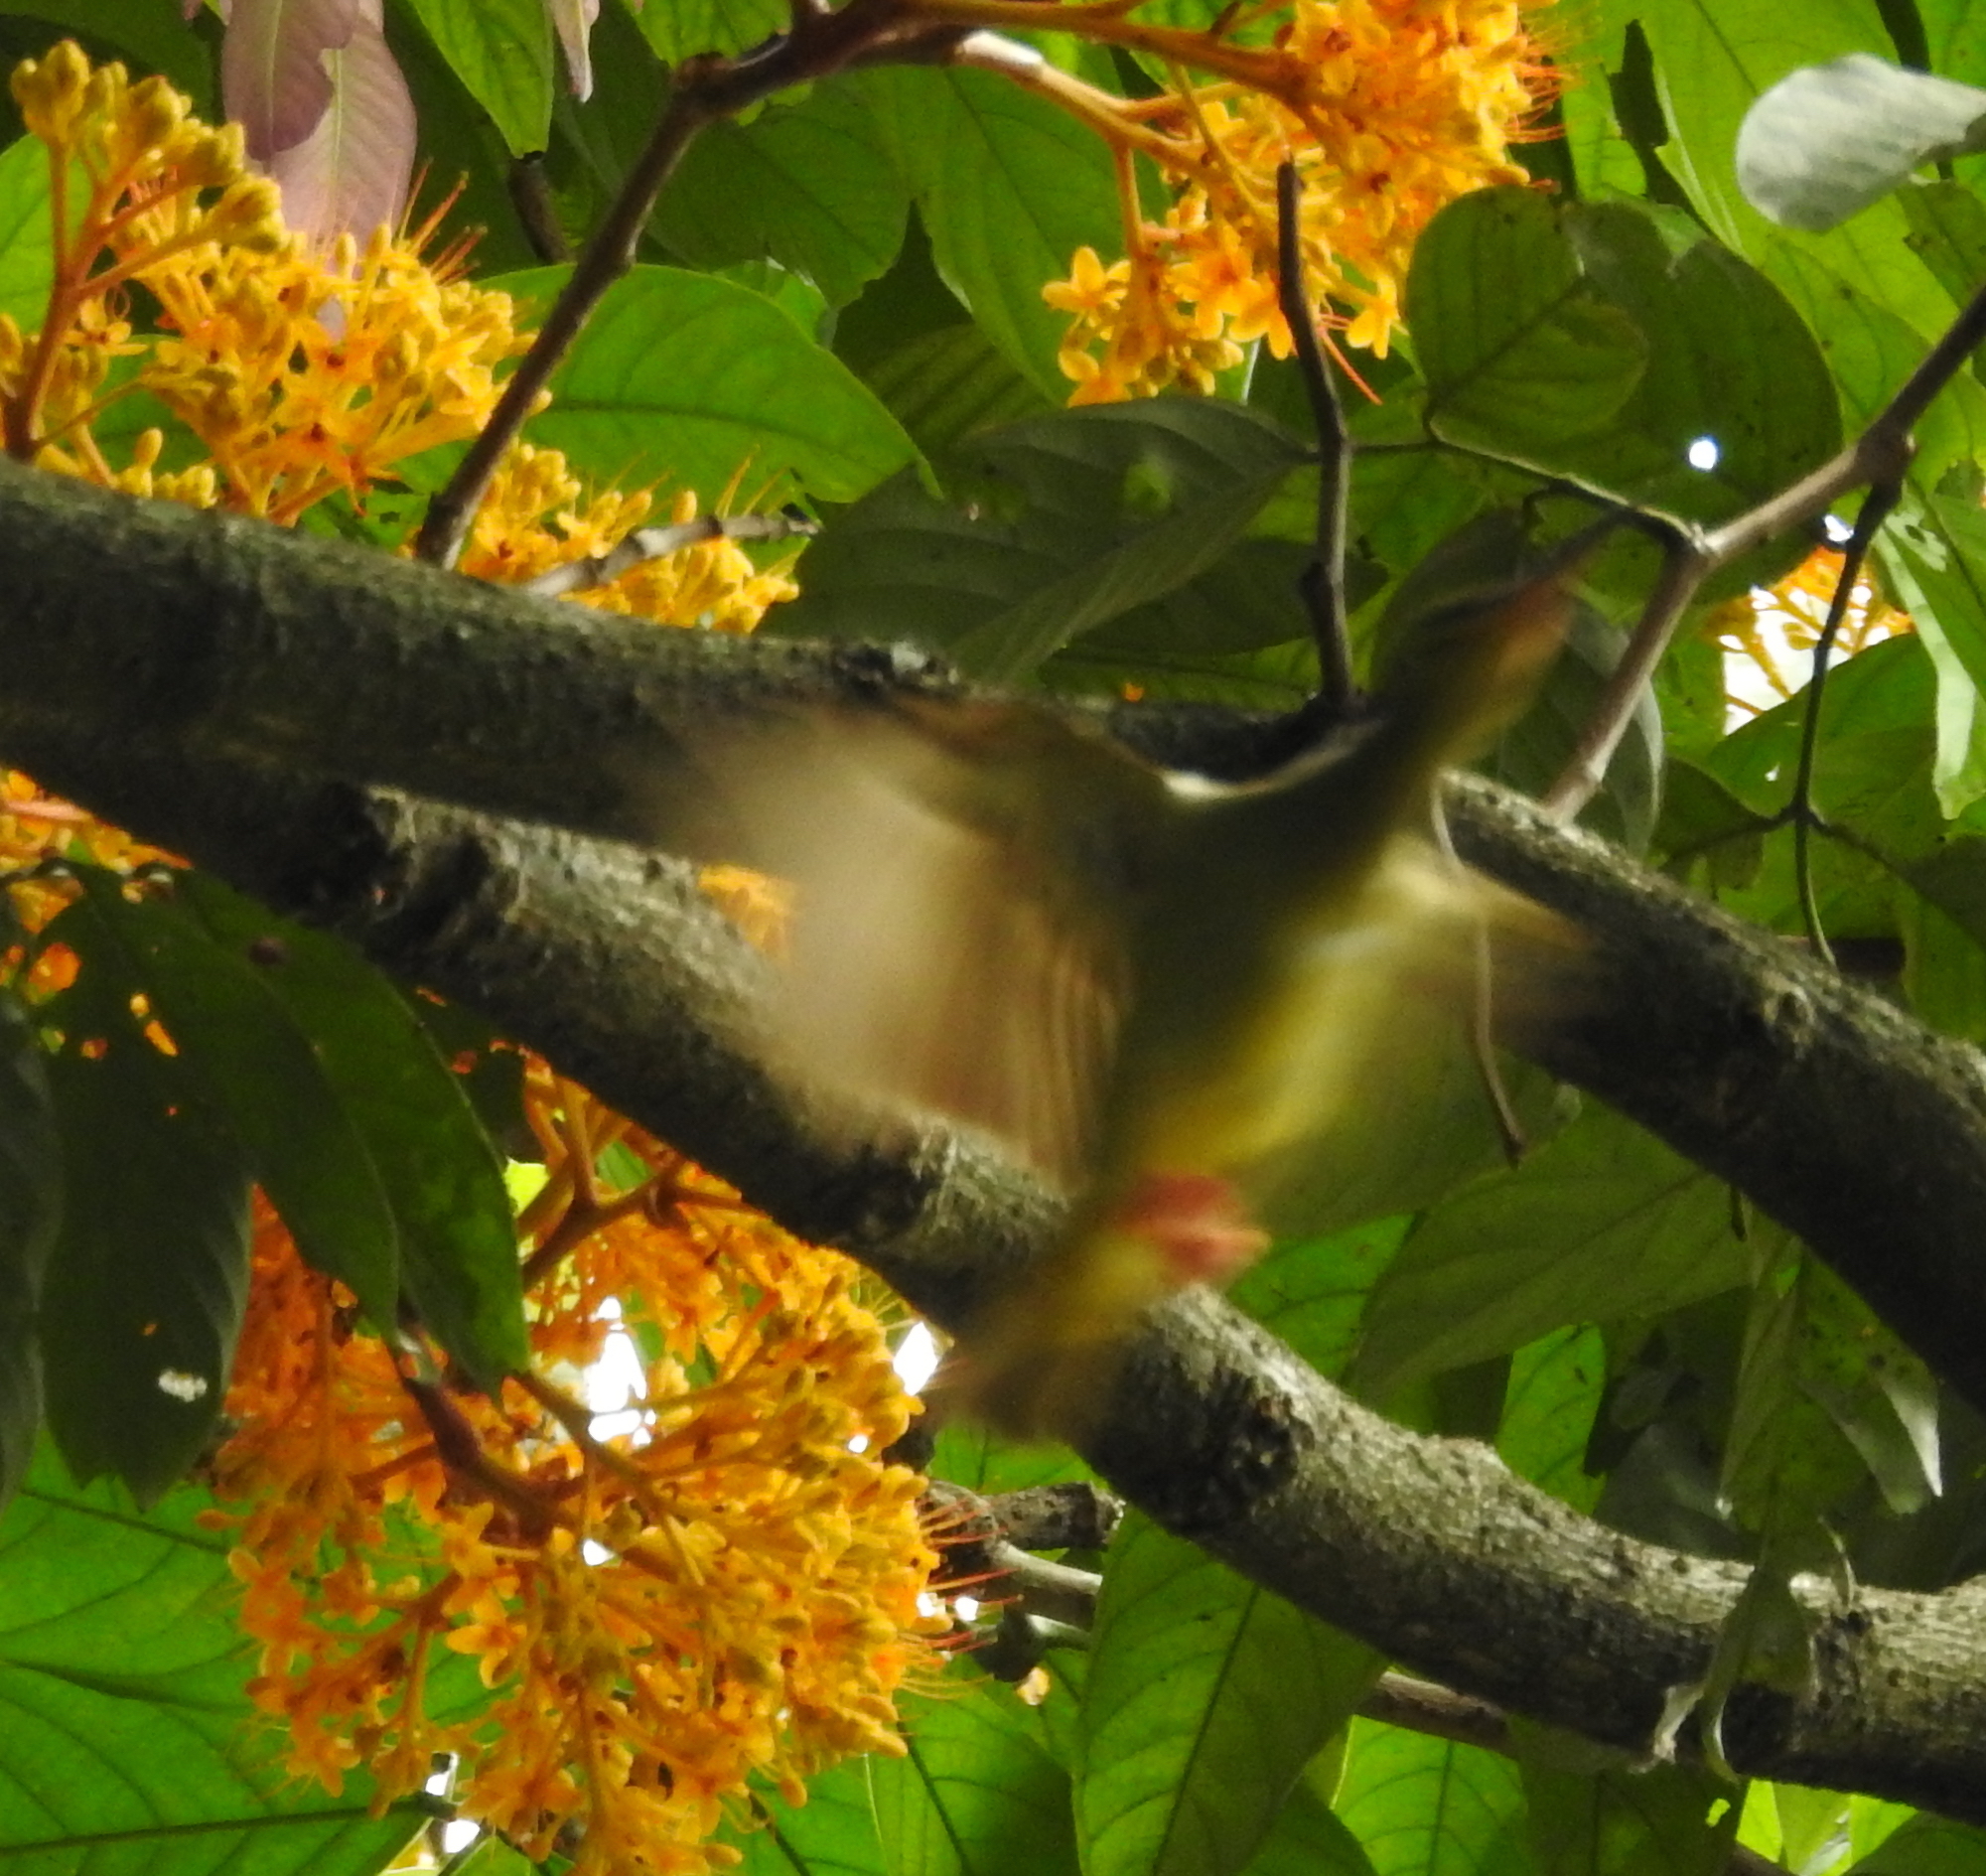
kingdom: Animalia
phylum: Chordata
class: Aves
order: Passeriformes
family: Nectariniidae
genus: Arachnothera
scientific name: Arachnothera
